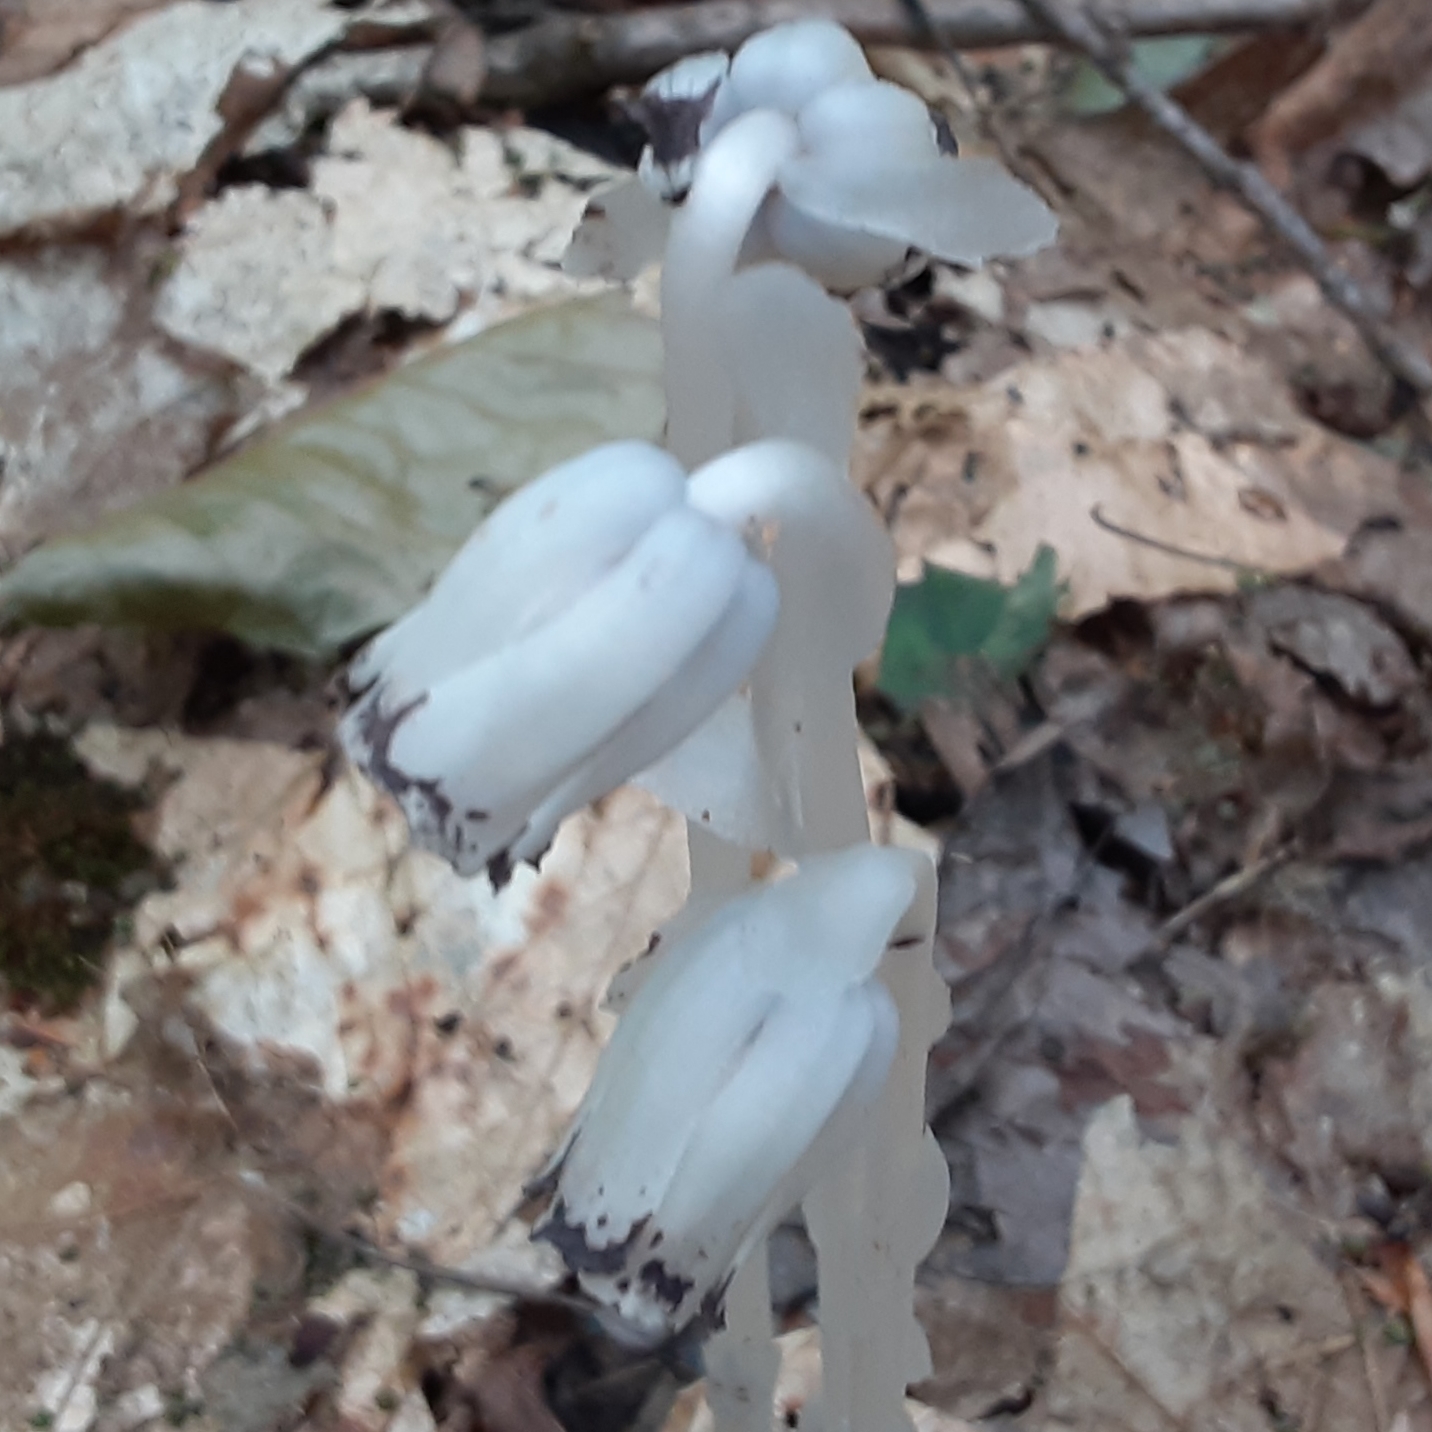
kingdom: Plantae
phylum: Tracheophyta
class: Magnoliopsida
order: Ericales
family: Ericaceae
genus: Monotropa
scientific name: Monotropa uniflora
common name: Convulsion root
